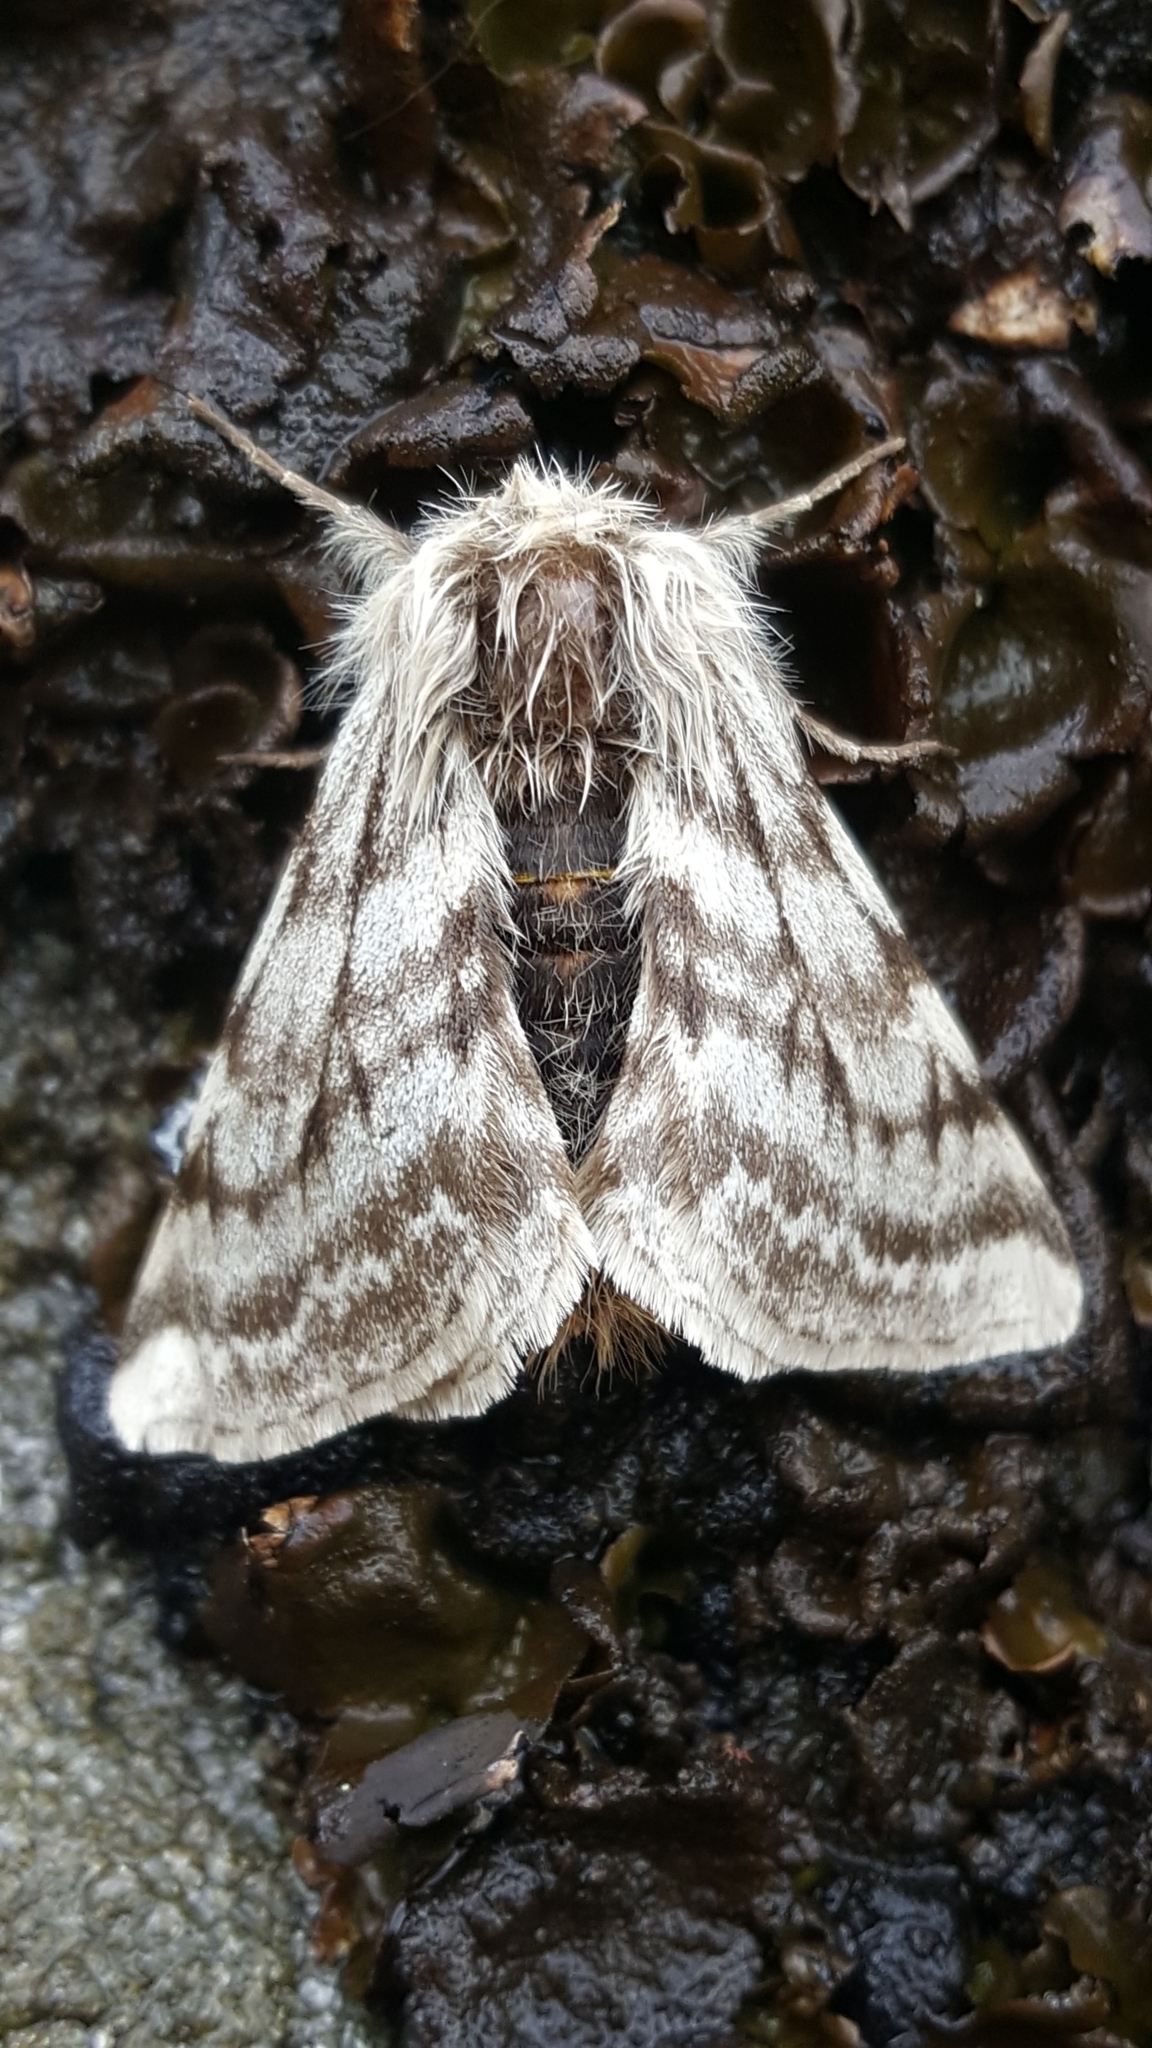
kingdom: Animalia
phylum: Arthropoda
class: Insecta
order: Lepidoptera
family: Geometridae
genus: Lycia
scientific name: Lycia alpina
